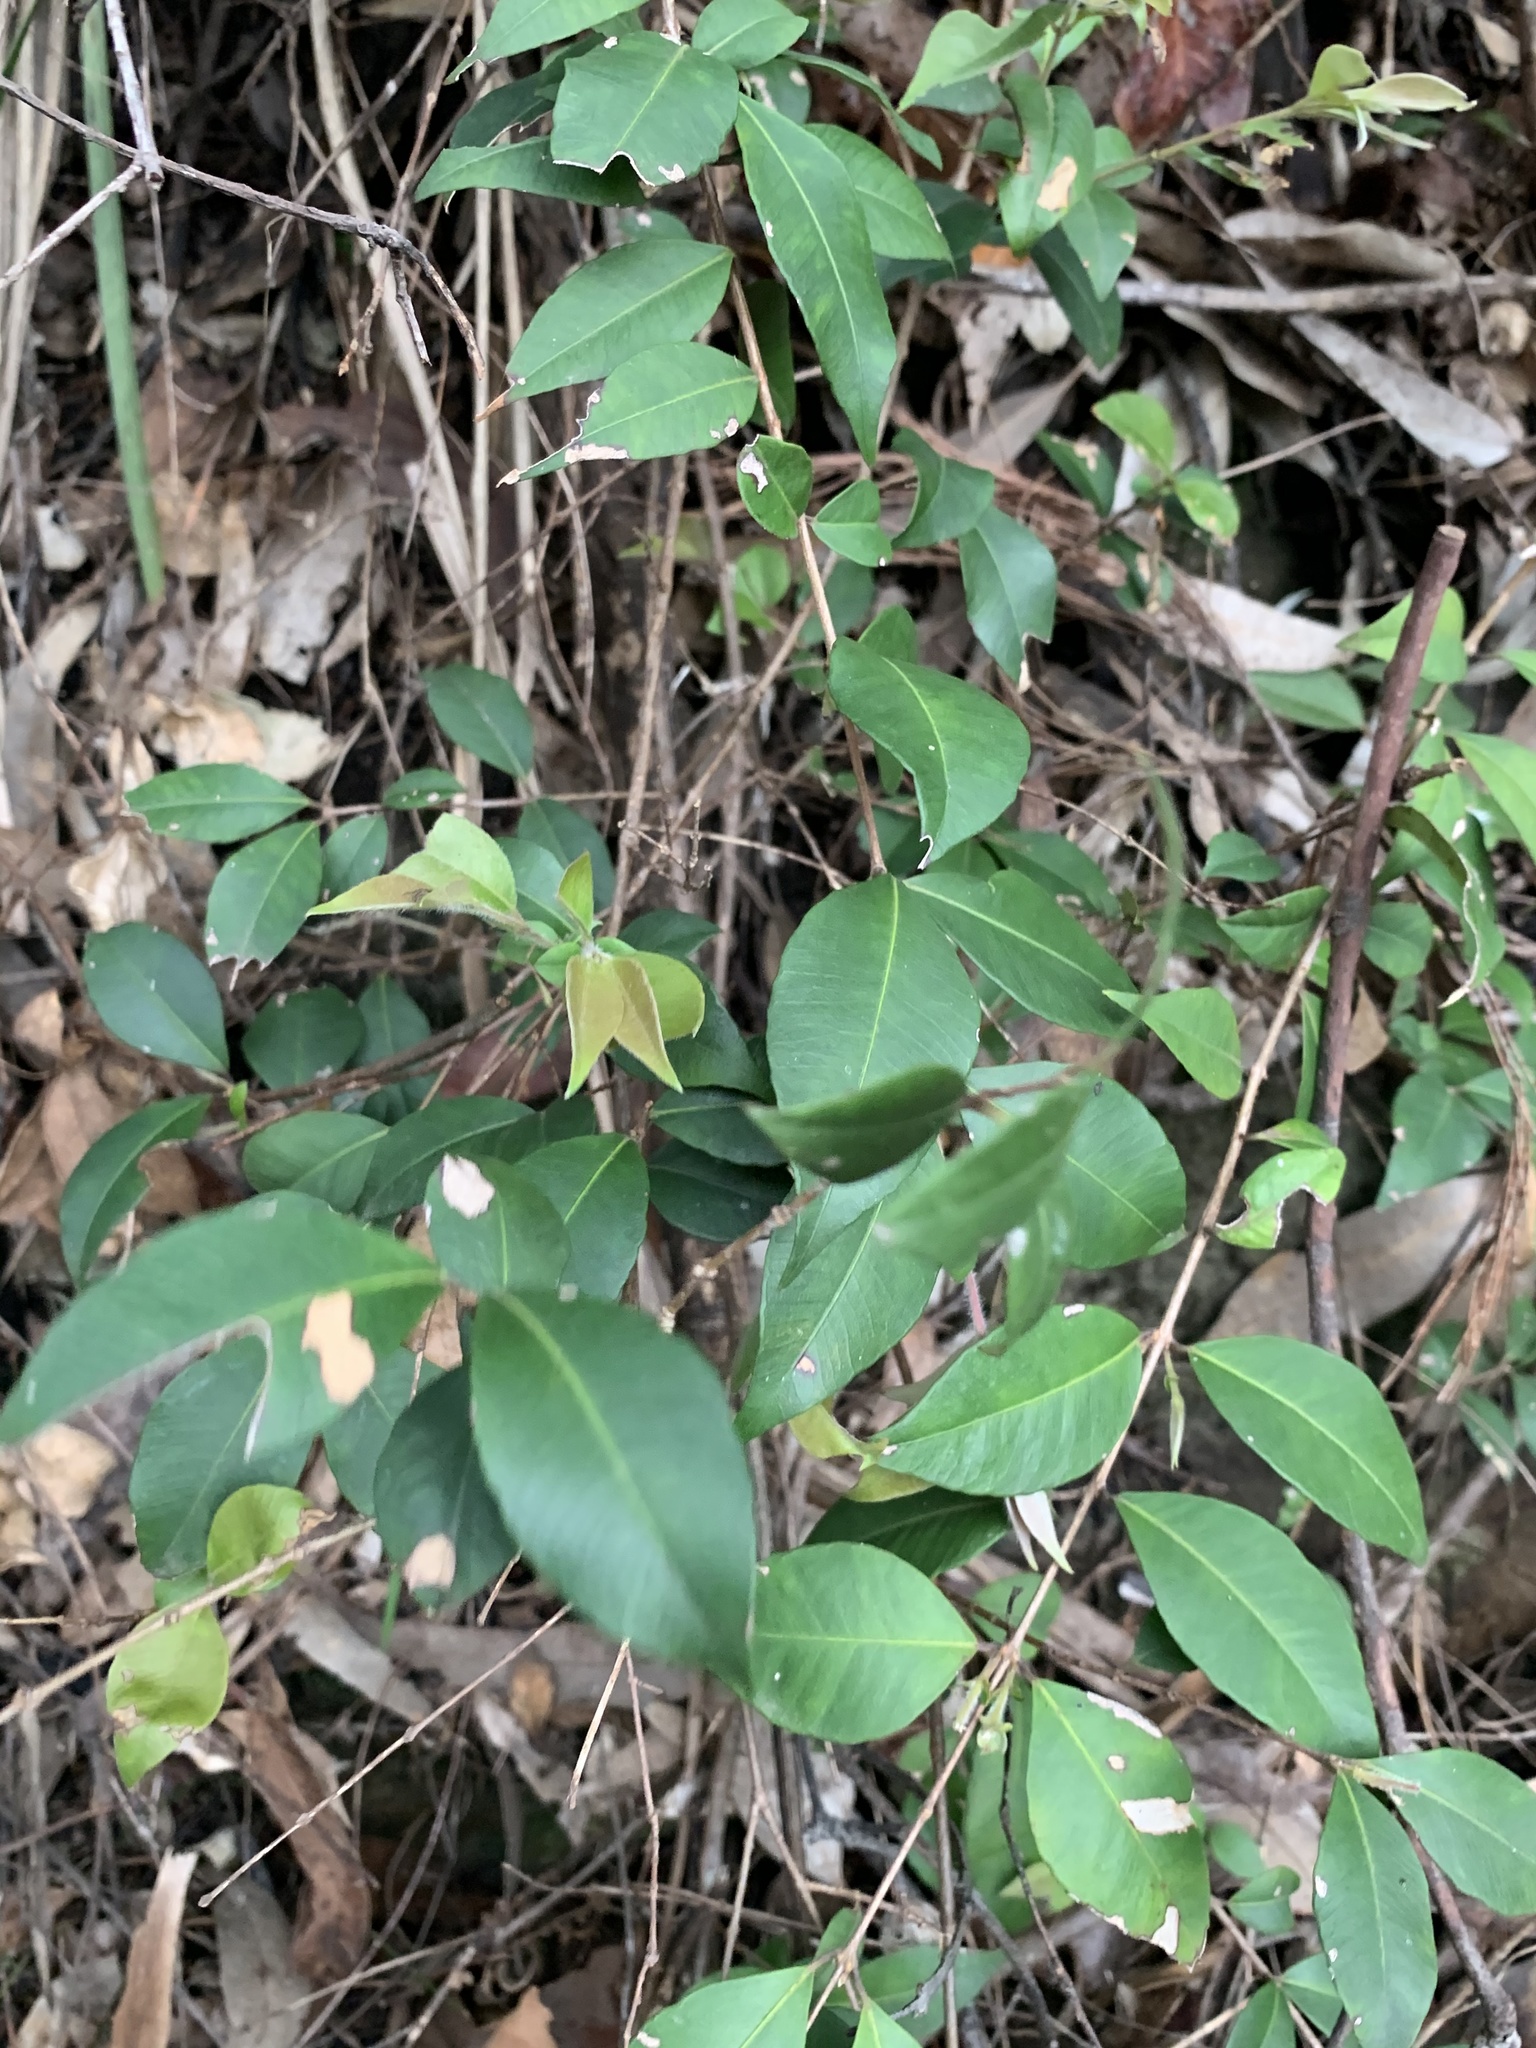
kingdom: Plantae
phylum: Tracheophyta
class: Magnoliopsida
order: Myrtales
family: Myrtaceae
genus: Backhousia
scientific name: Backhousia myrtifolia
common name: Carrol
